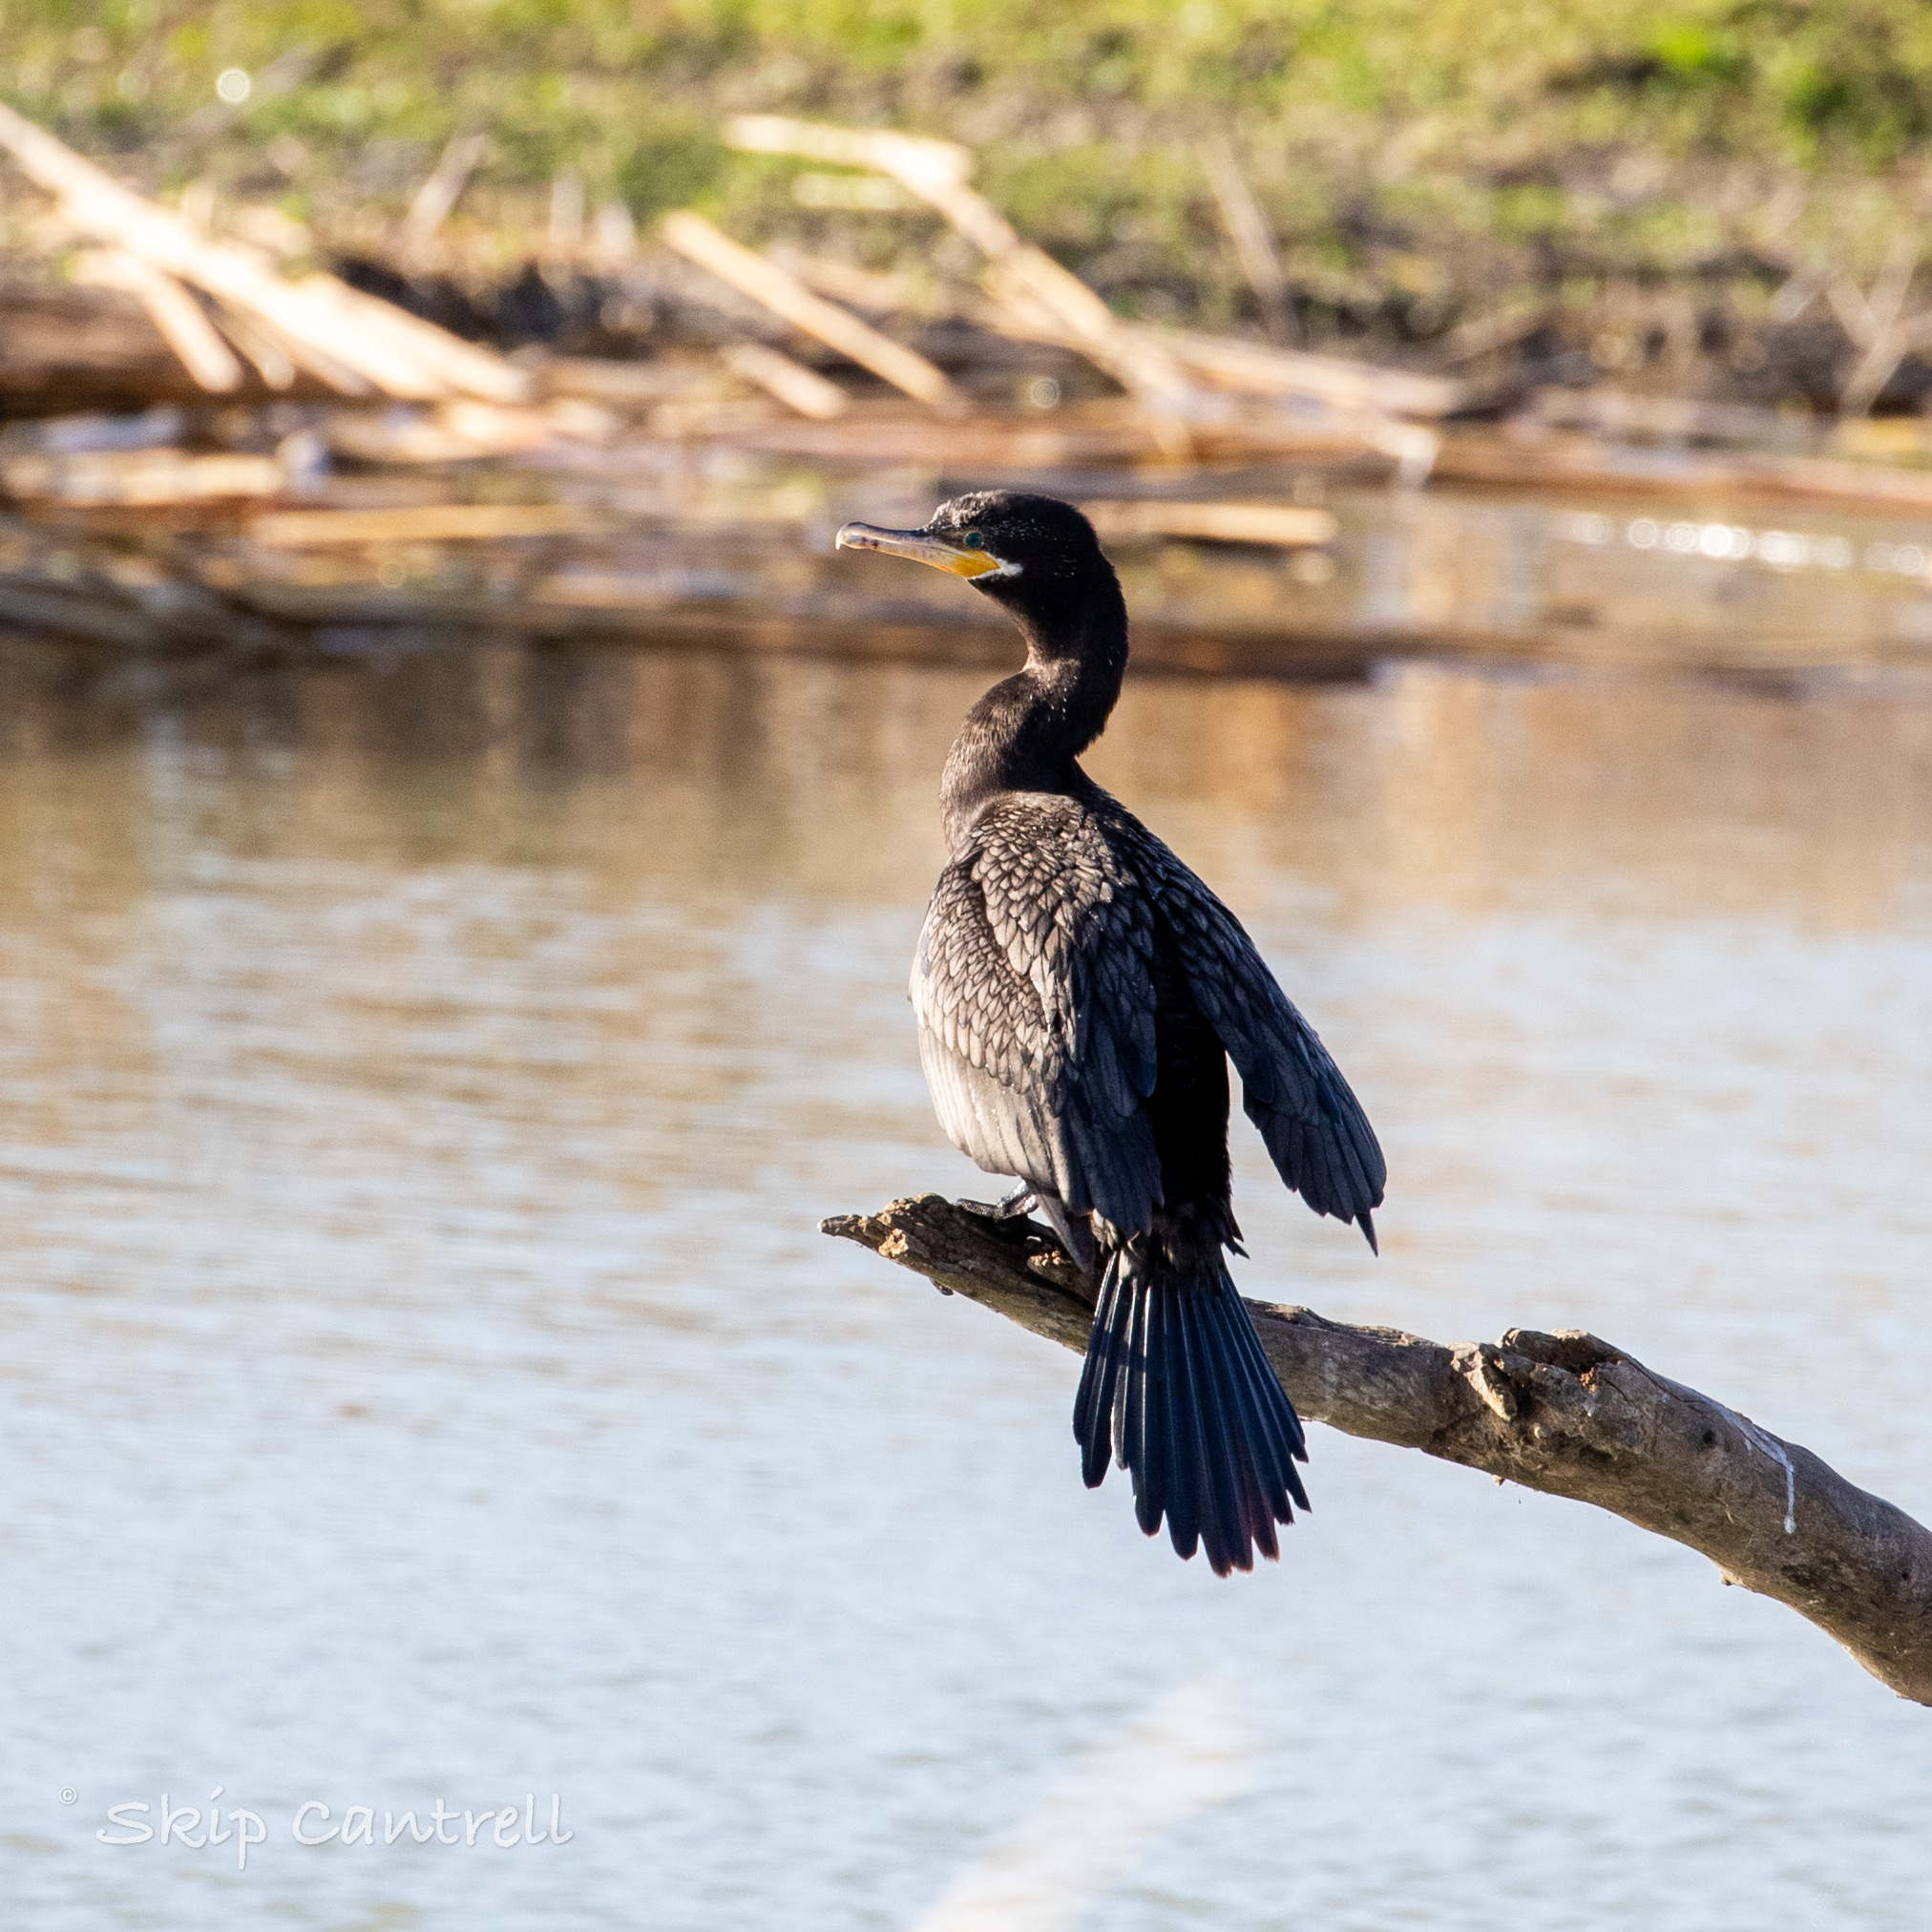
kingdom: Animalia
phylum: Chordata
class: Aves
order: Suliformes
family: Phalacrocoracidae
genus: Phalacrocorax
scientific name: Phalacrocorax brasilianus
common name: Neotropic cormorant
